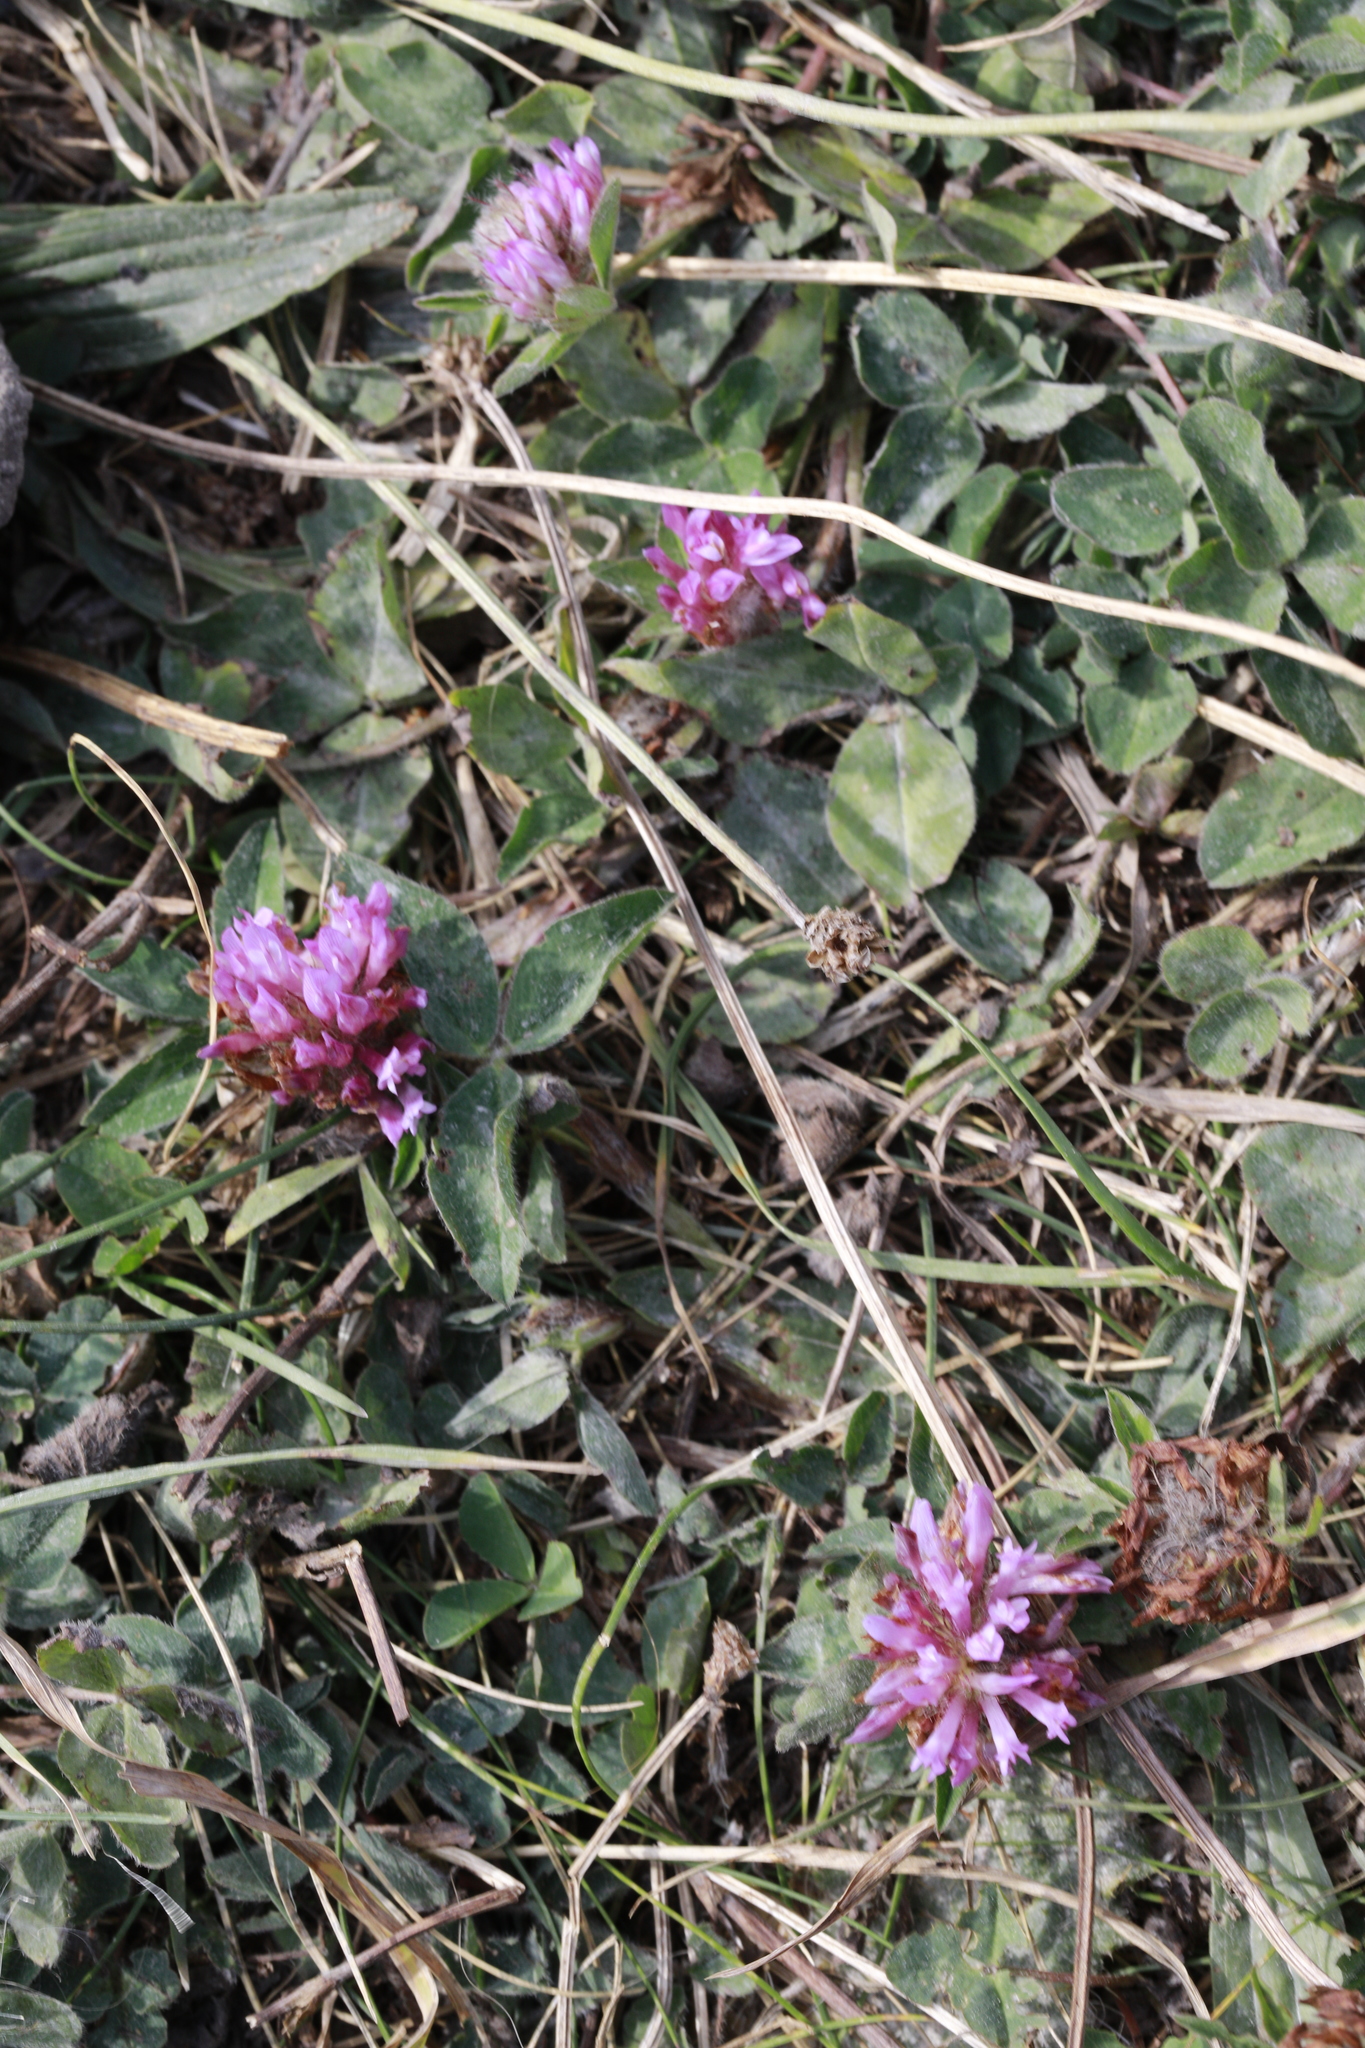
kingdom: Plantae
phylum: Tracheophyta
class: Magnoliopsida
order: Fabales
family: Fabaceae
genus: Trifolium
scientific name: Trifolium pratense
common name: Red clover
